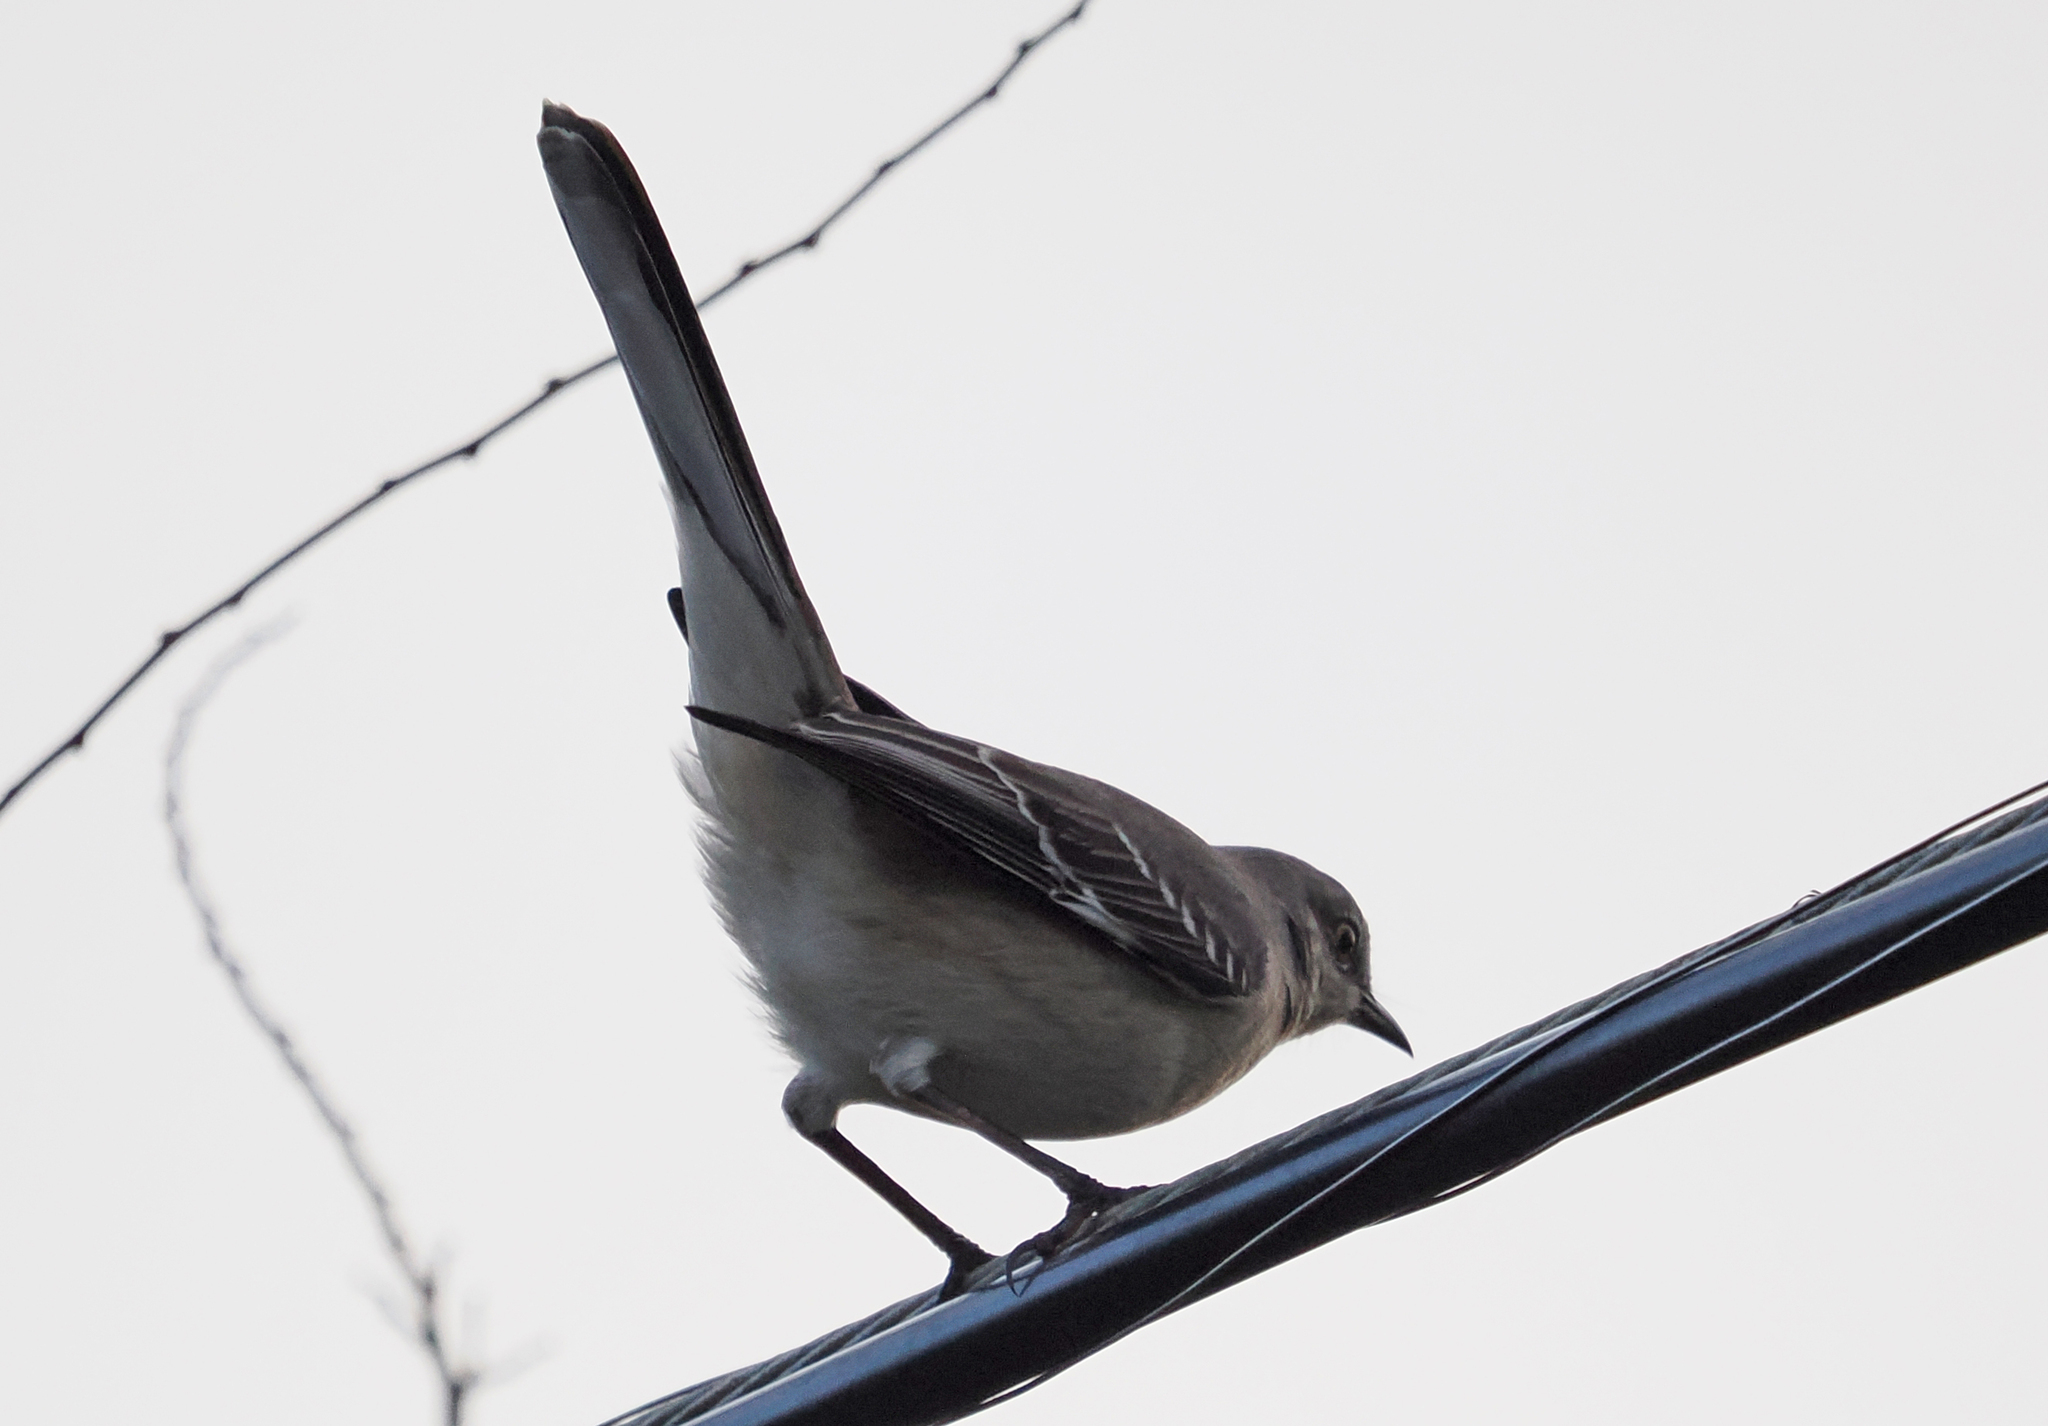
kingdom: Animalia
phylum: Chordata
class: Aves
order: Passeriformes
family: Mimidae
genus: Mimus
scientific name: Mimus polyglottos
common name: Northern mockingbird
